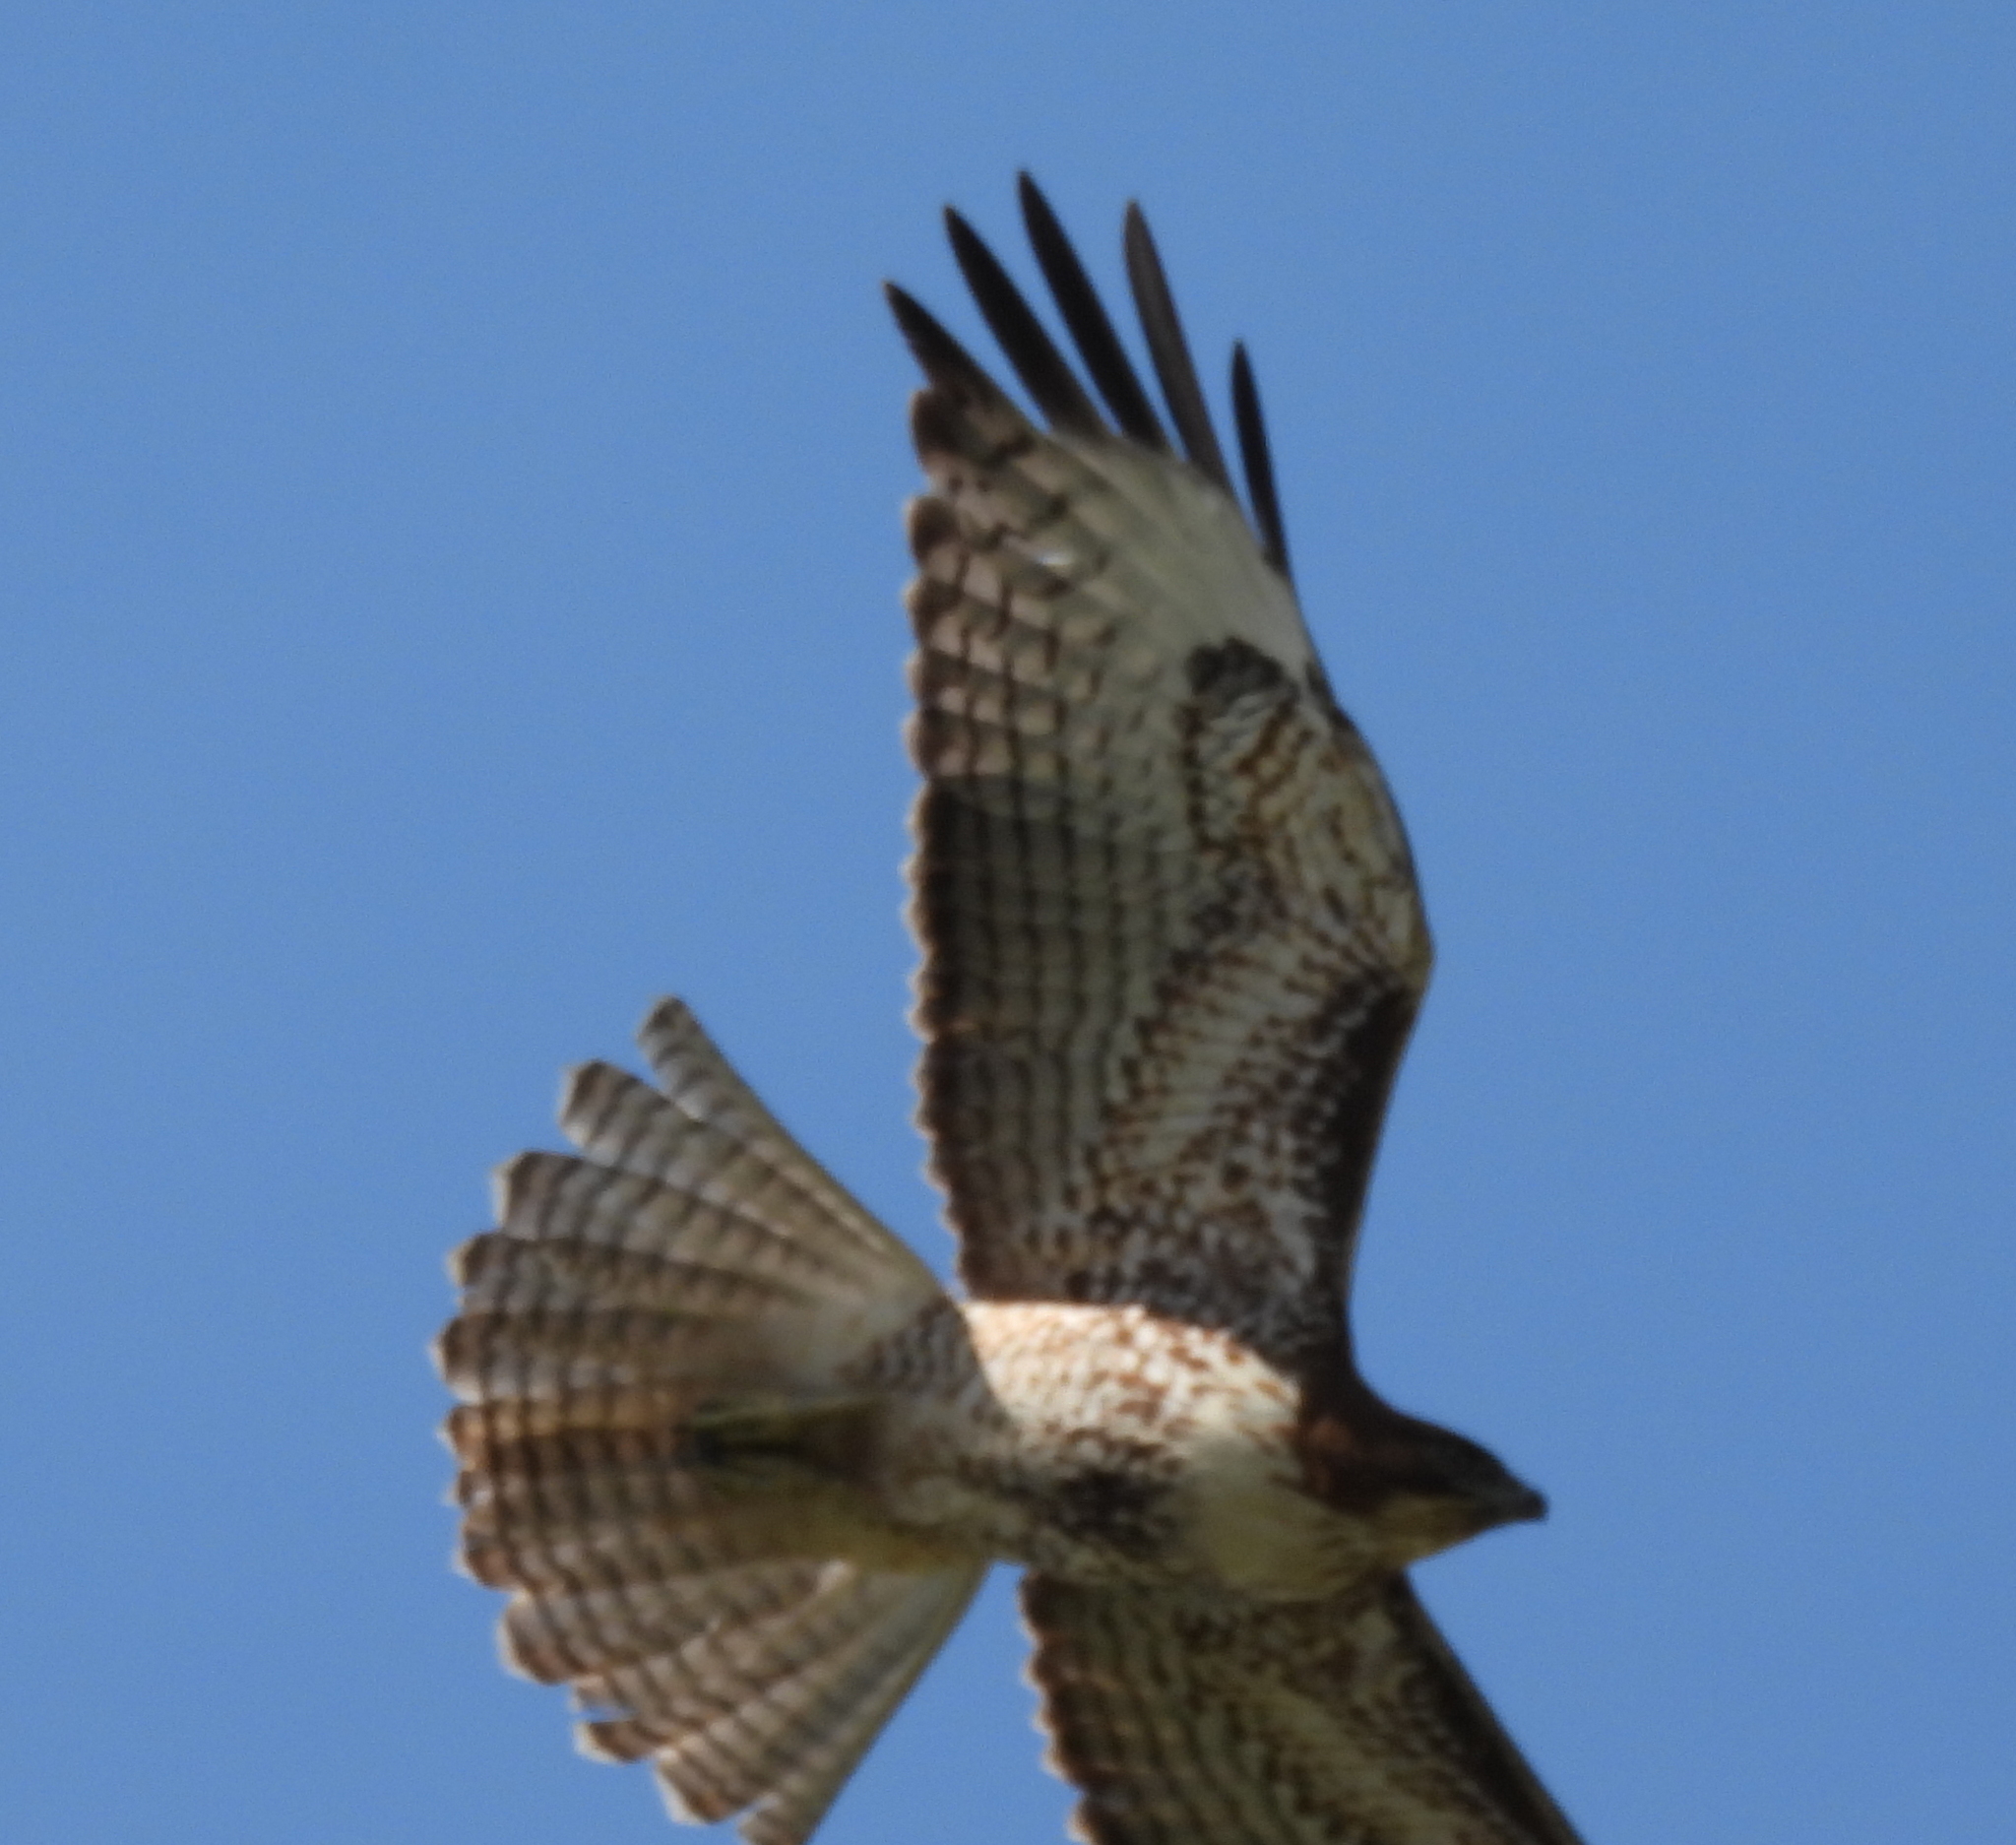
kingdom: Animalia
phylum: Chordata
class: Aves
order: Accipitriformes
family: Accipitridae
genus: Buteo
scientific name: Buteo jamaicensis
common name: Red-tailed hawk
